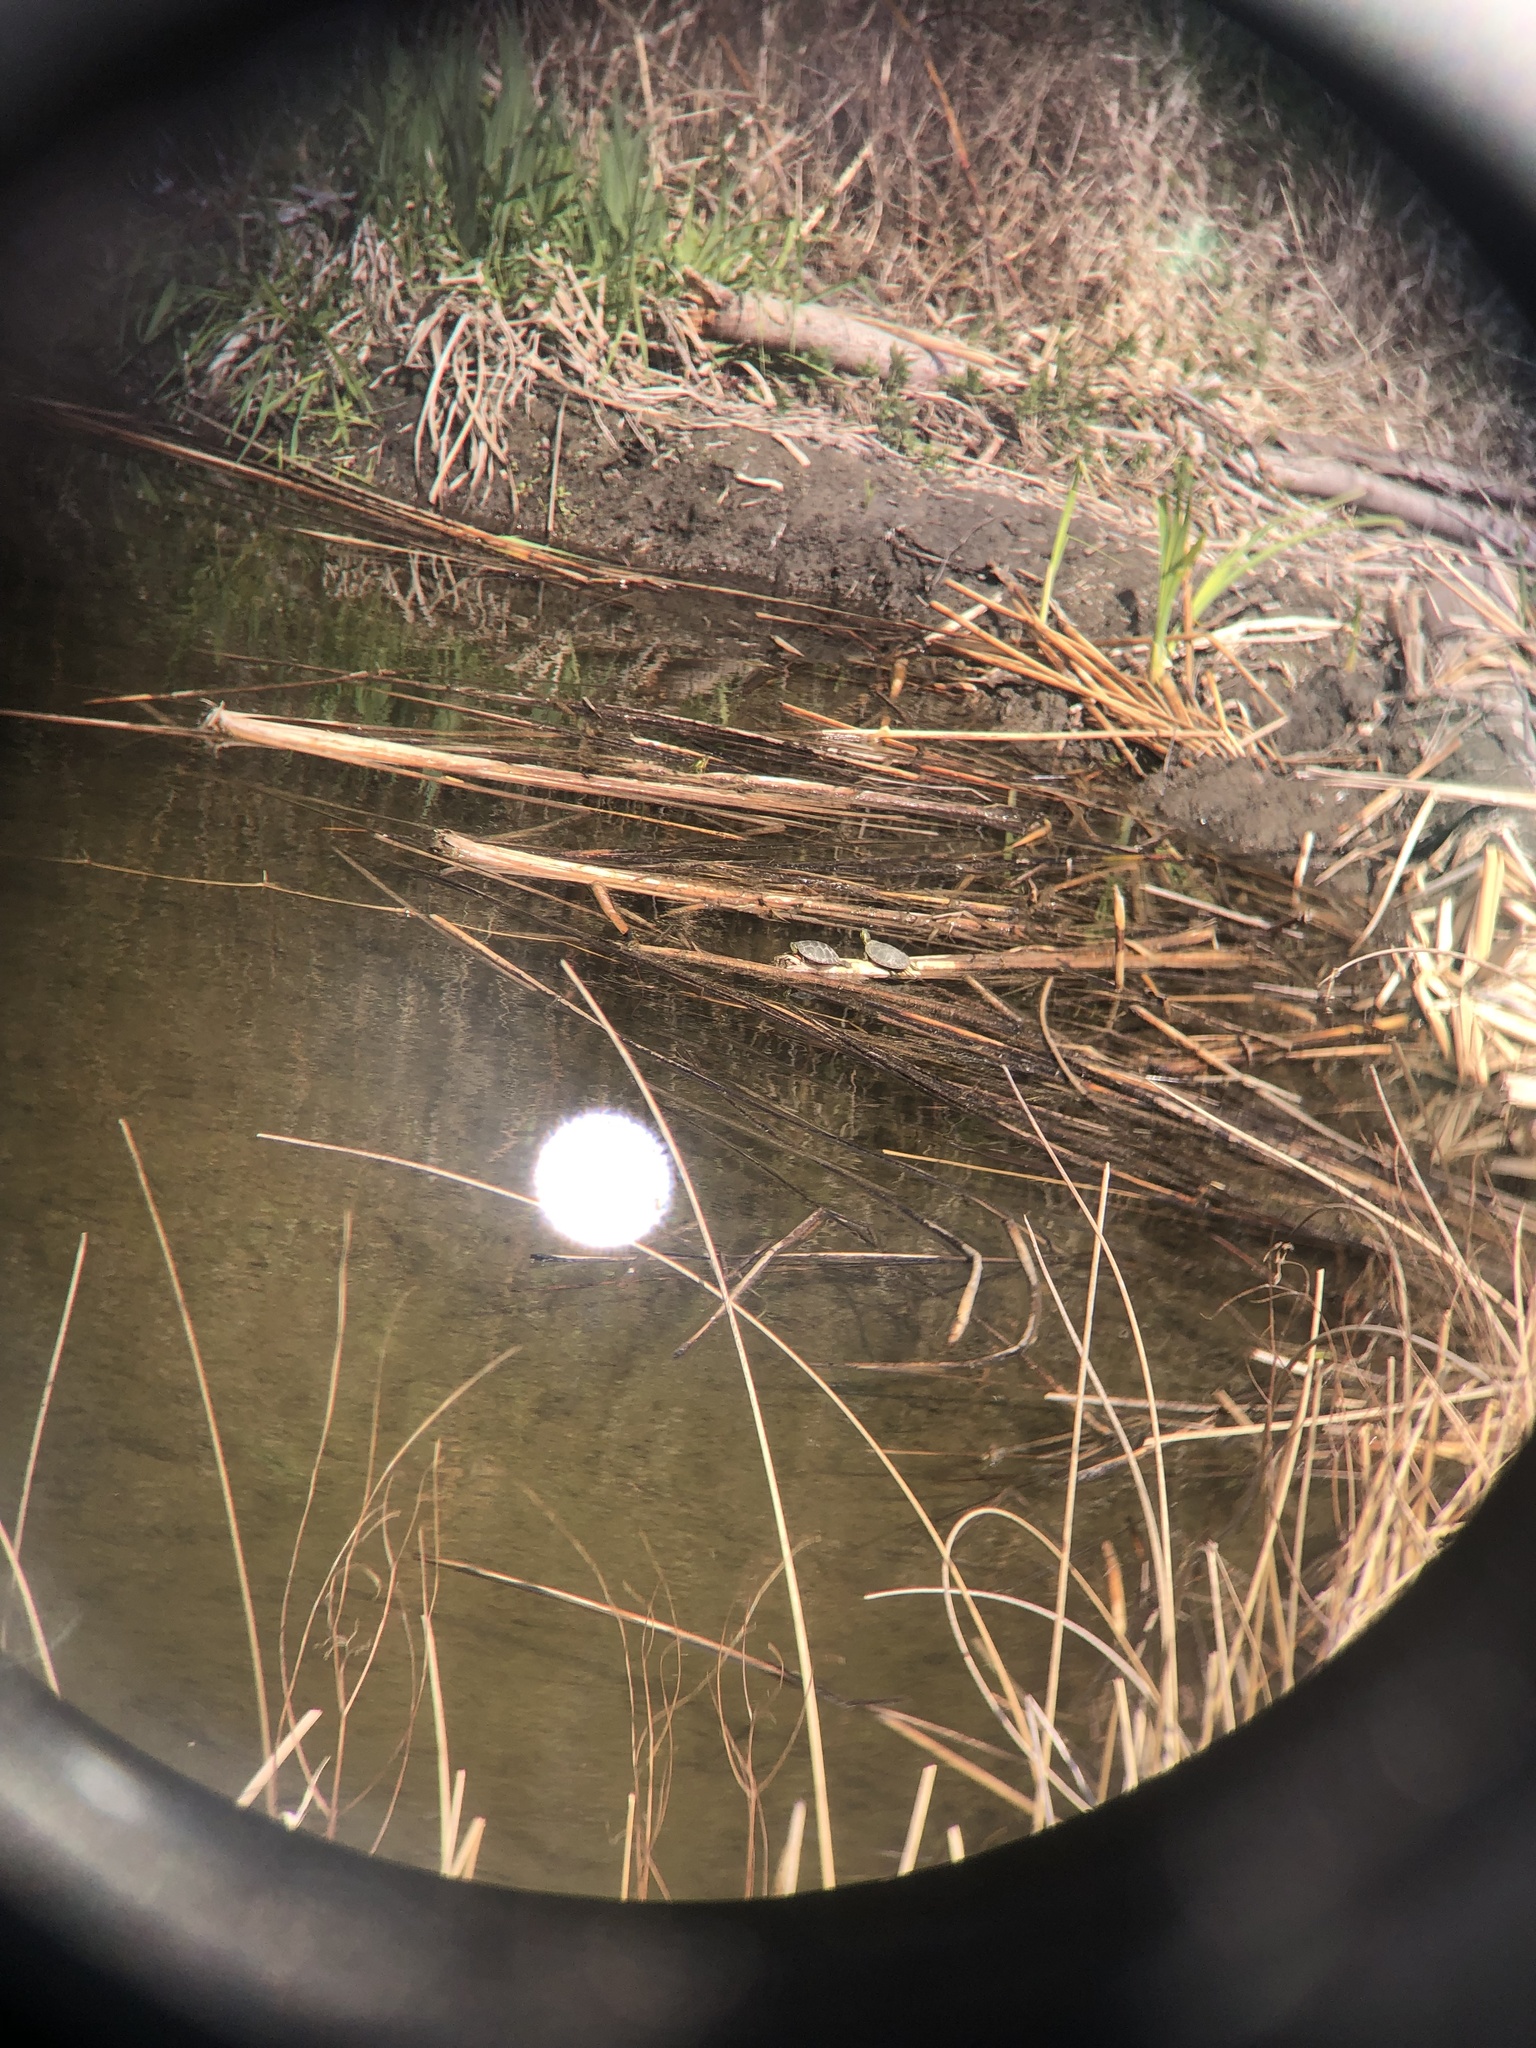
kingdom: Animalia
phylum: Chordata
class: Testudines
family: Emydidae
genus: Chrysemys
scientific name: Chrysemys picta
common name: Painted turtle
